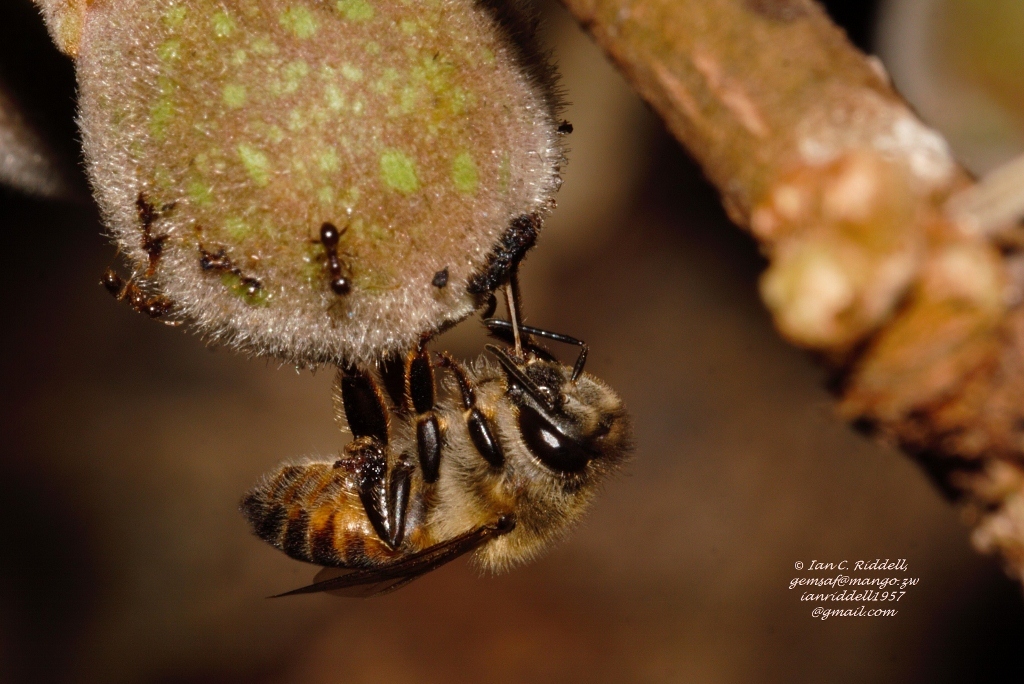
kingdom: Animalia
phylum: Arthropoda
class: Insecta
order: Hymenoptera
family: Apidae
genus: Apis
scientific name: Apis mellifera
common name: Honey bee
